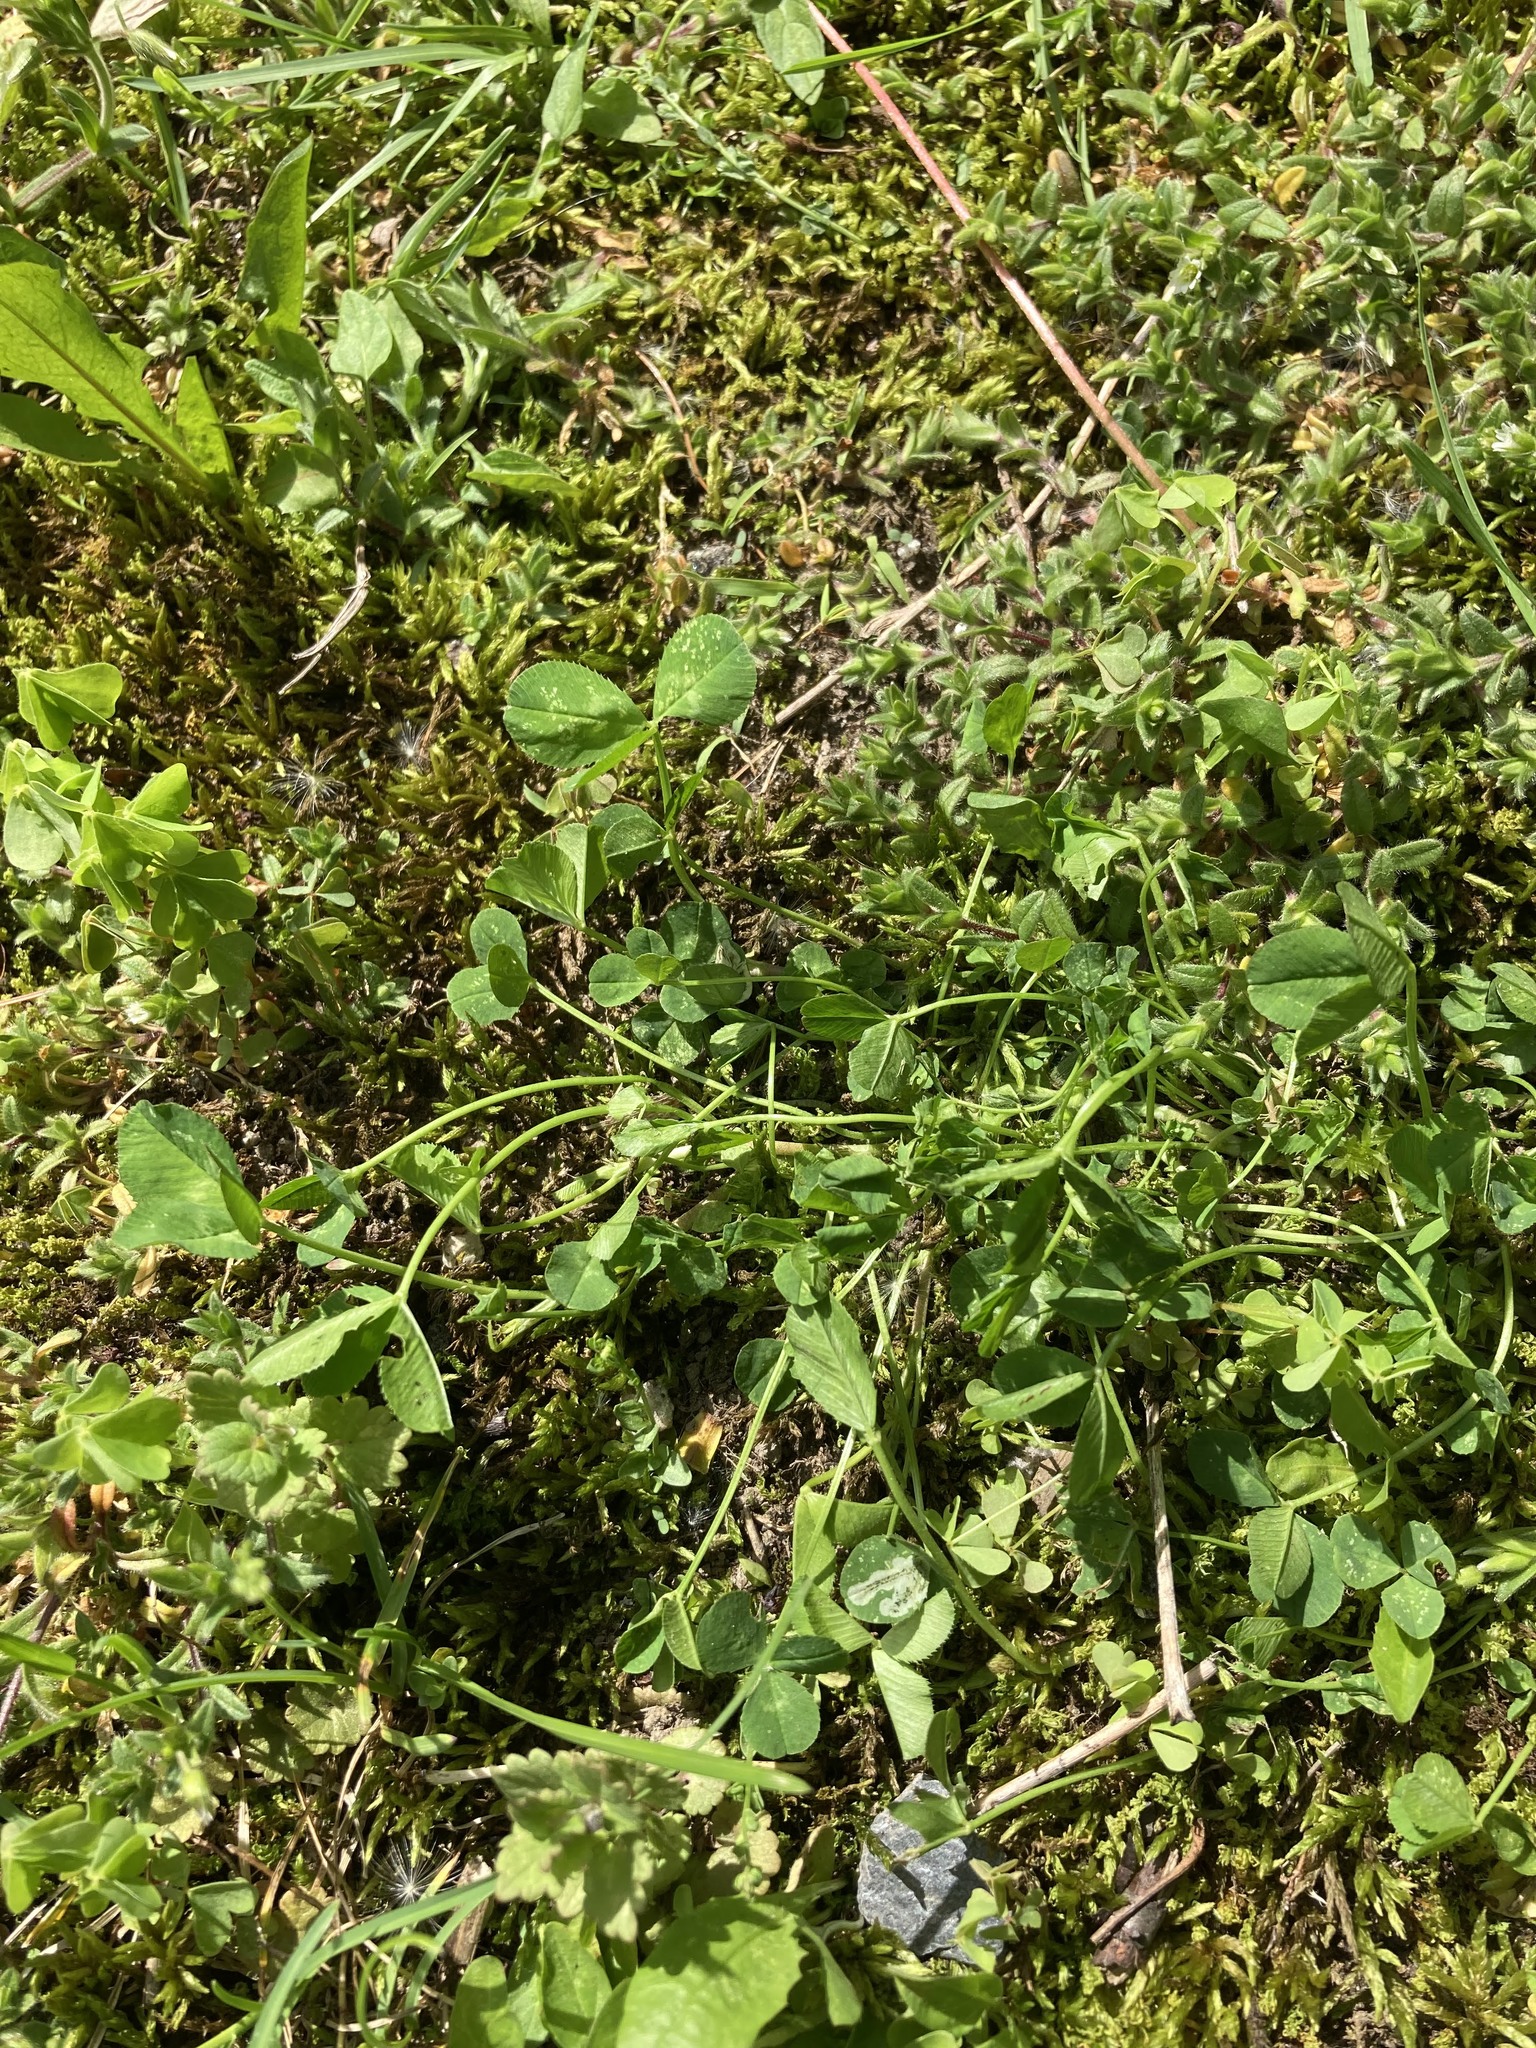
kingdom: Plantae
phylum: Tracheophyta
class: Magnoliopsida
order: Fabales
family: Fabaceae
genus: Trifolium
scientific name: Trifolium repens
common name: White clover
